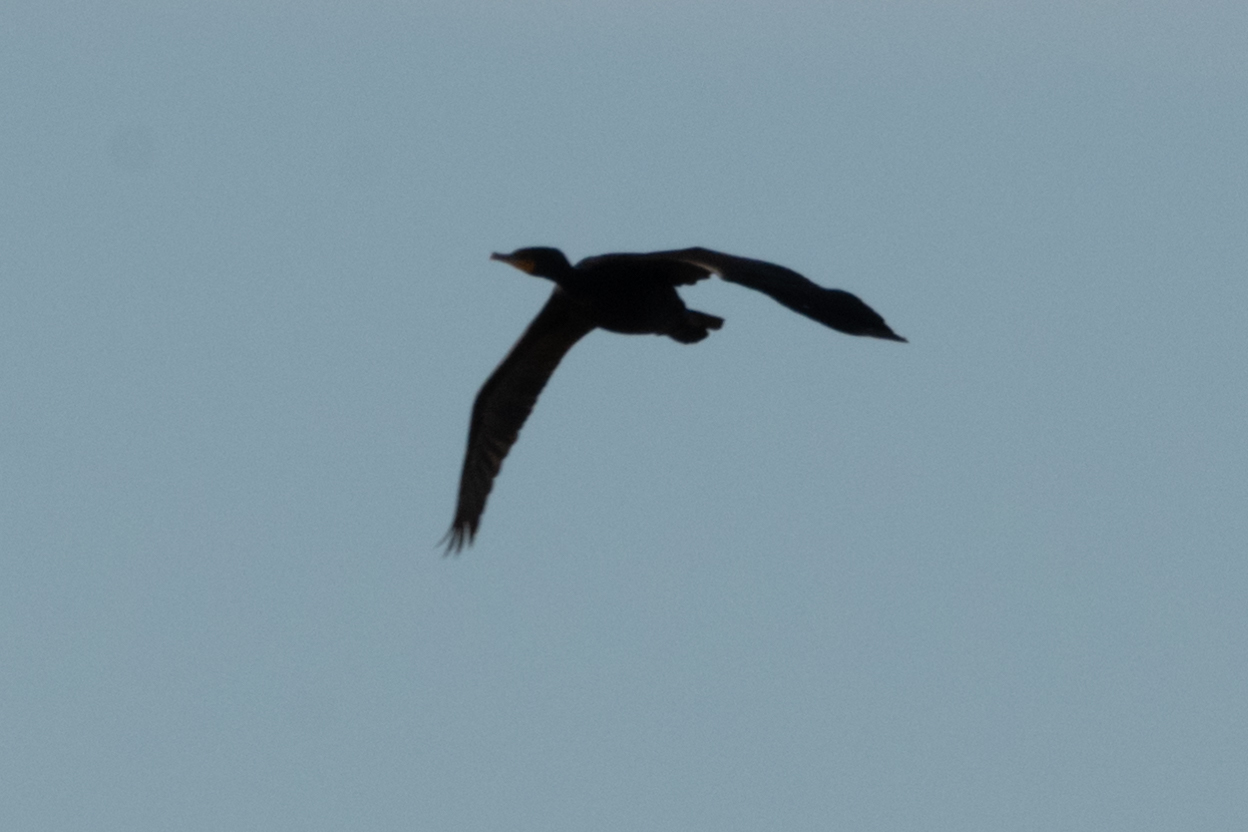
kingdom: Animalia
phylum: Chordata
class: Aves
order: Suliformes
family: Phalacrocoracidae
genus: Phalacrocorax
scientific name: Phalacrocorax auritus
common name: Double-crested cormorant
